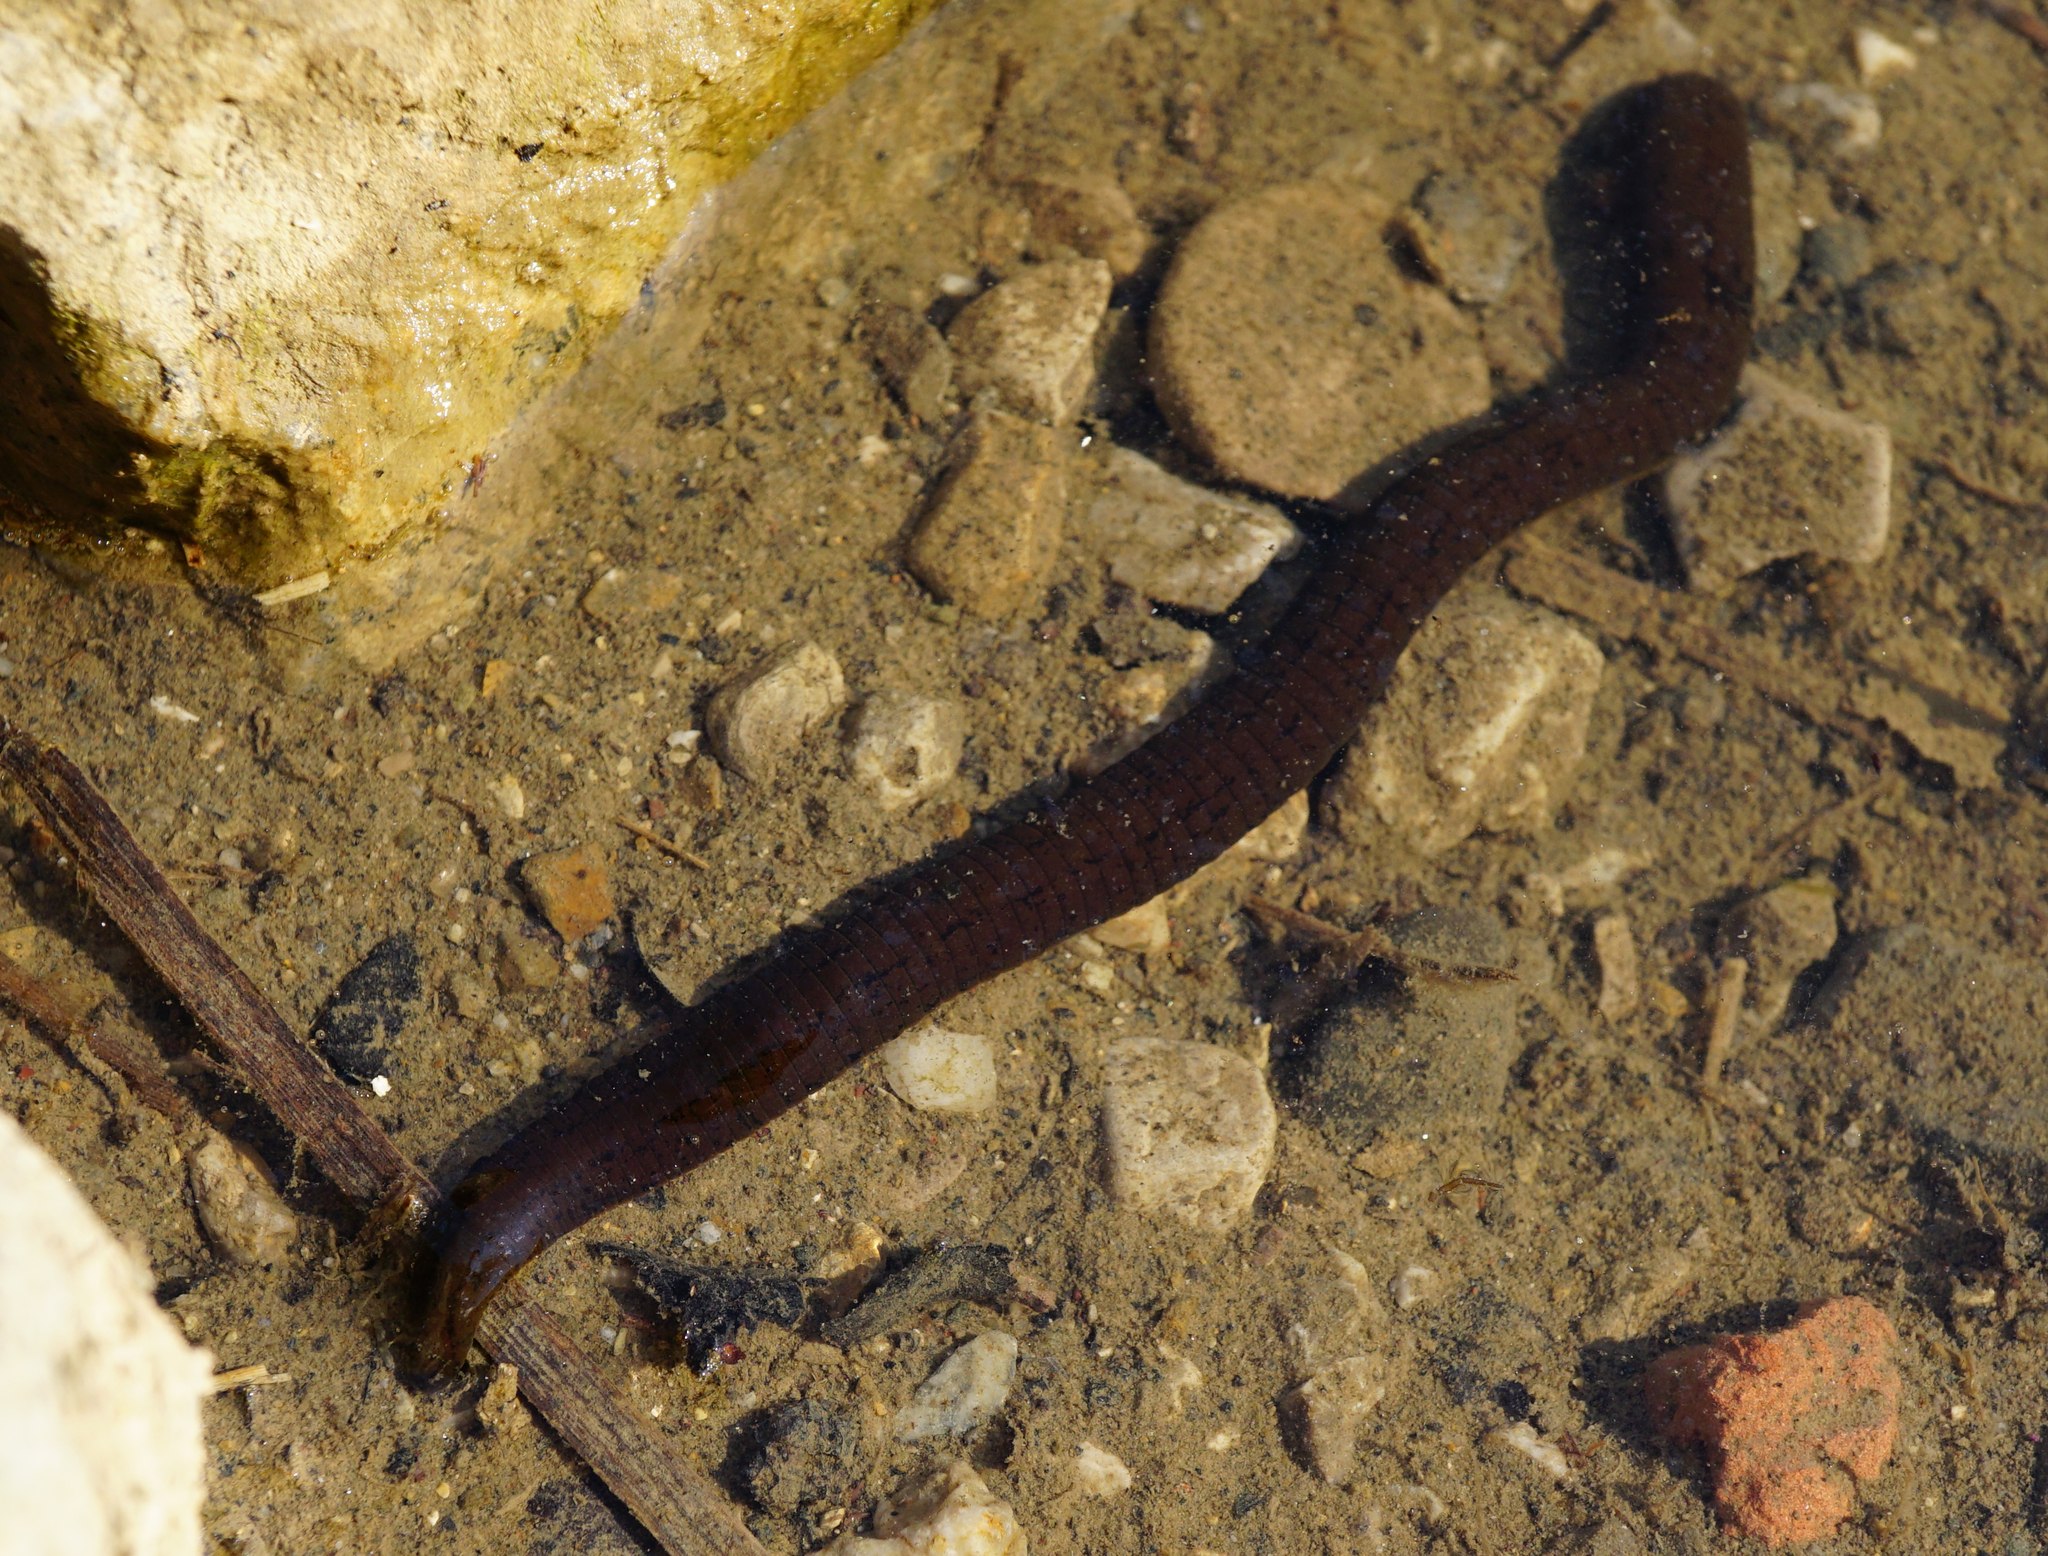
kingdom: Animalia
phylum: Annelida
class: Clitellata
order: Arhynchobdellida
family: Haemopidae
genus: Haemopis
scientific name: Haemopis sanguisuga
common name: Horse leech
